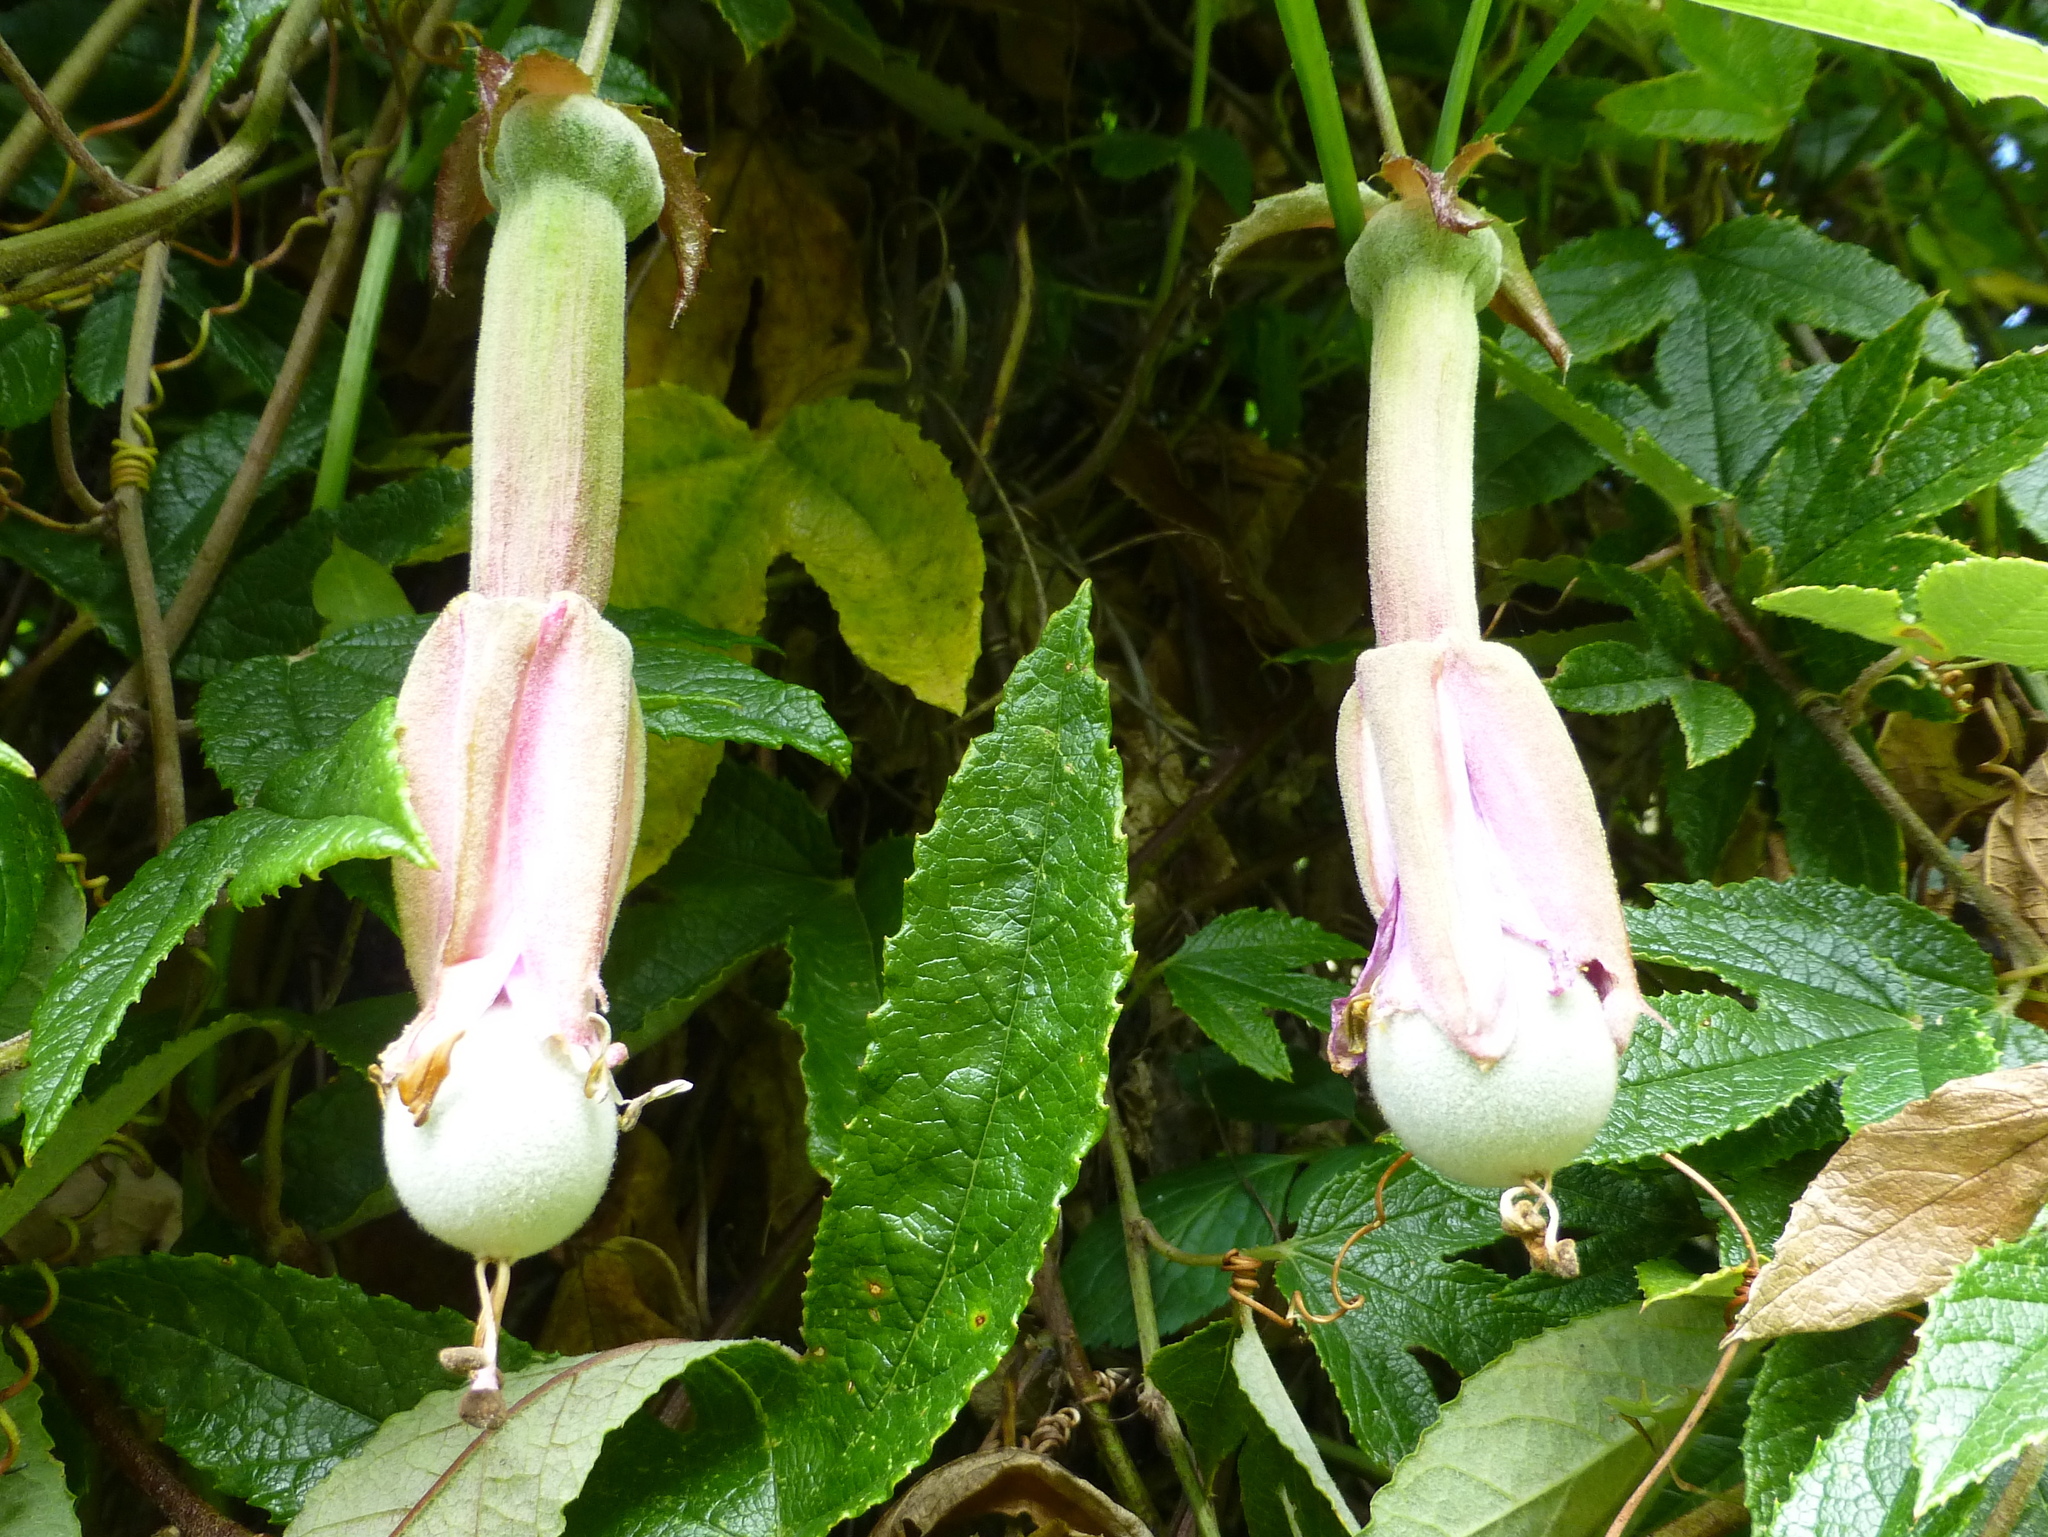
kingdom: Plantae
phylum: Tracheophyta
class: Magnoliopsida
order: Malpighiales
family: Passifloraceae
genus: Passiflora
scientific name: Passiflora pinnatistipula
